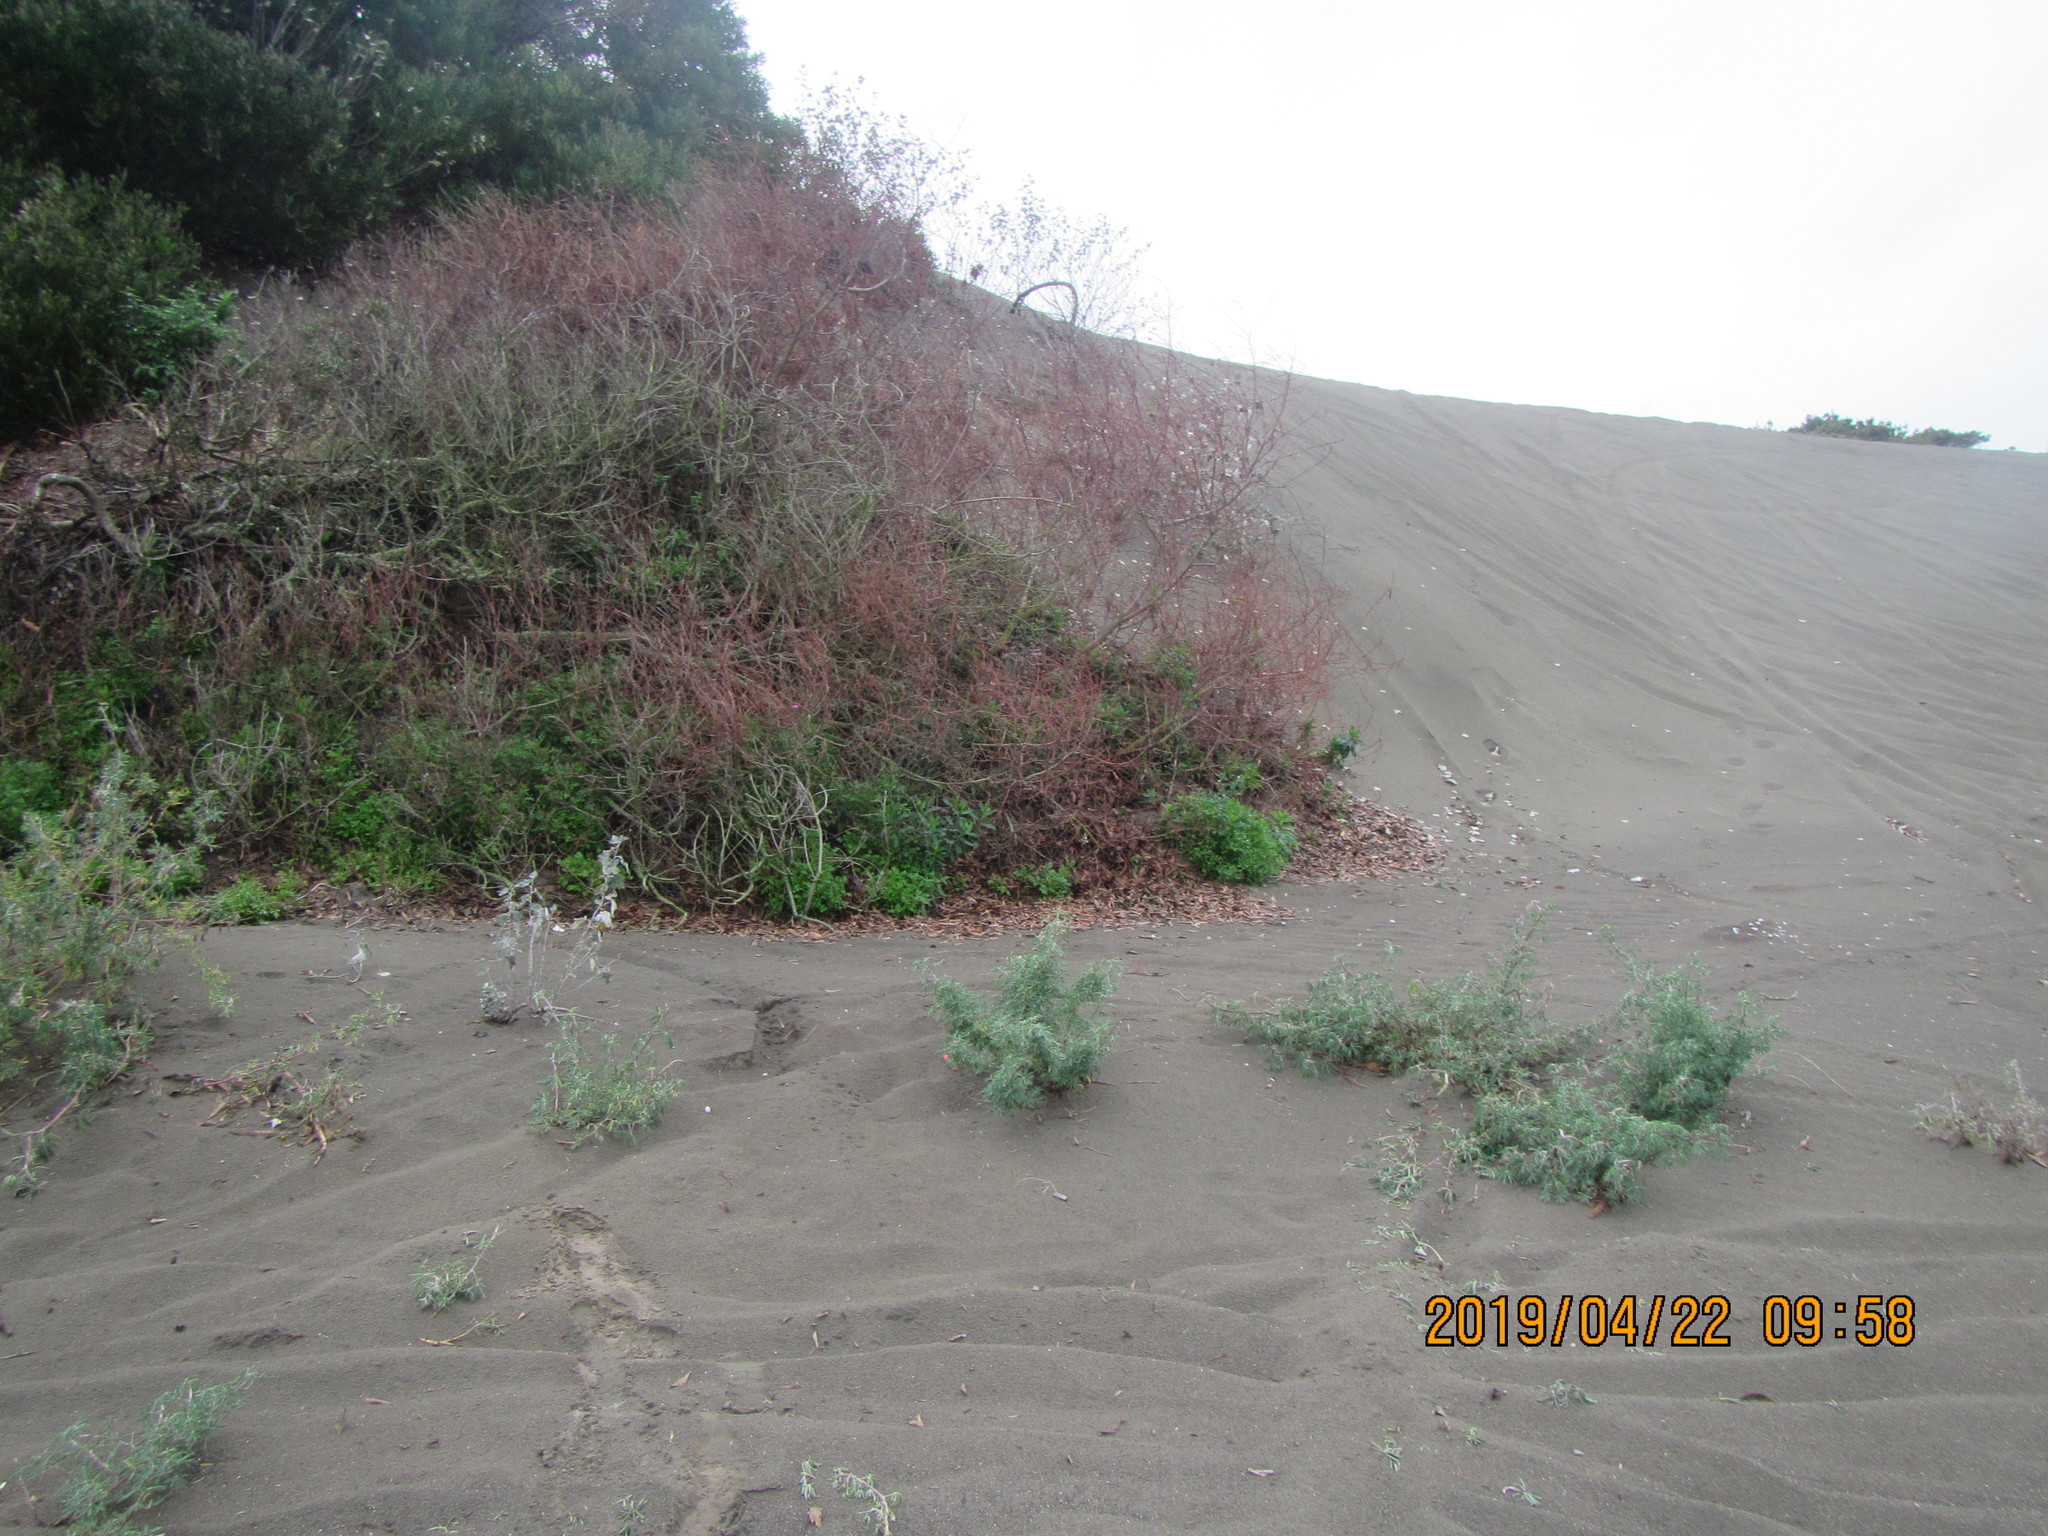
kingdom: Plantae
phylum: Tracheophyta
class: Magnoliopsida
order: Malpighiales
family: Salicaceae
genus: Populus
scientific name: Populus alba
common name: White poplar
